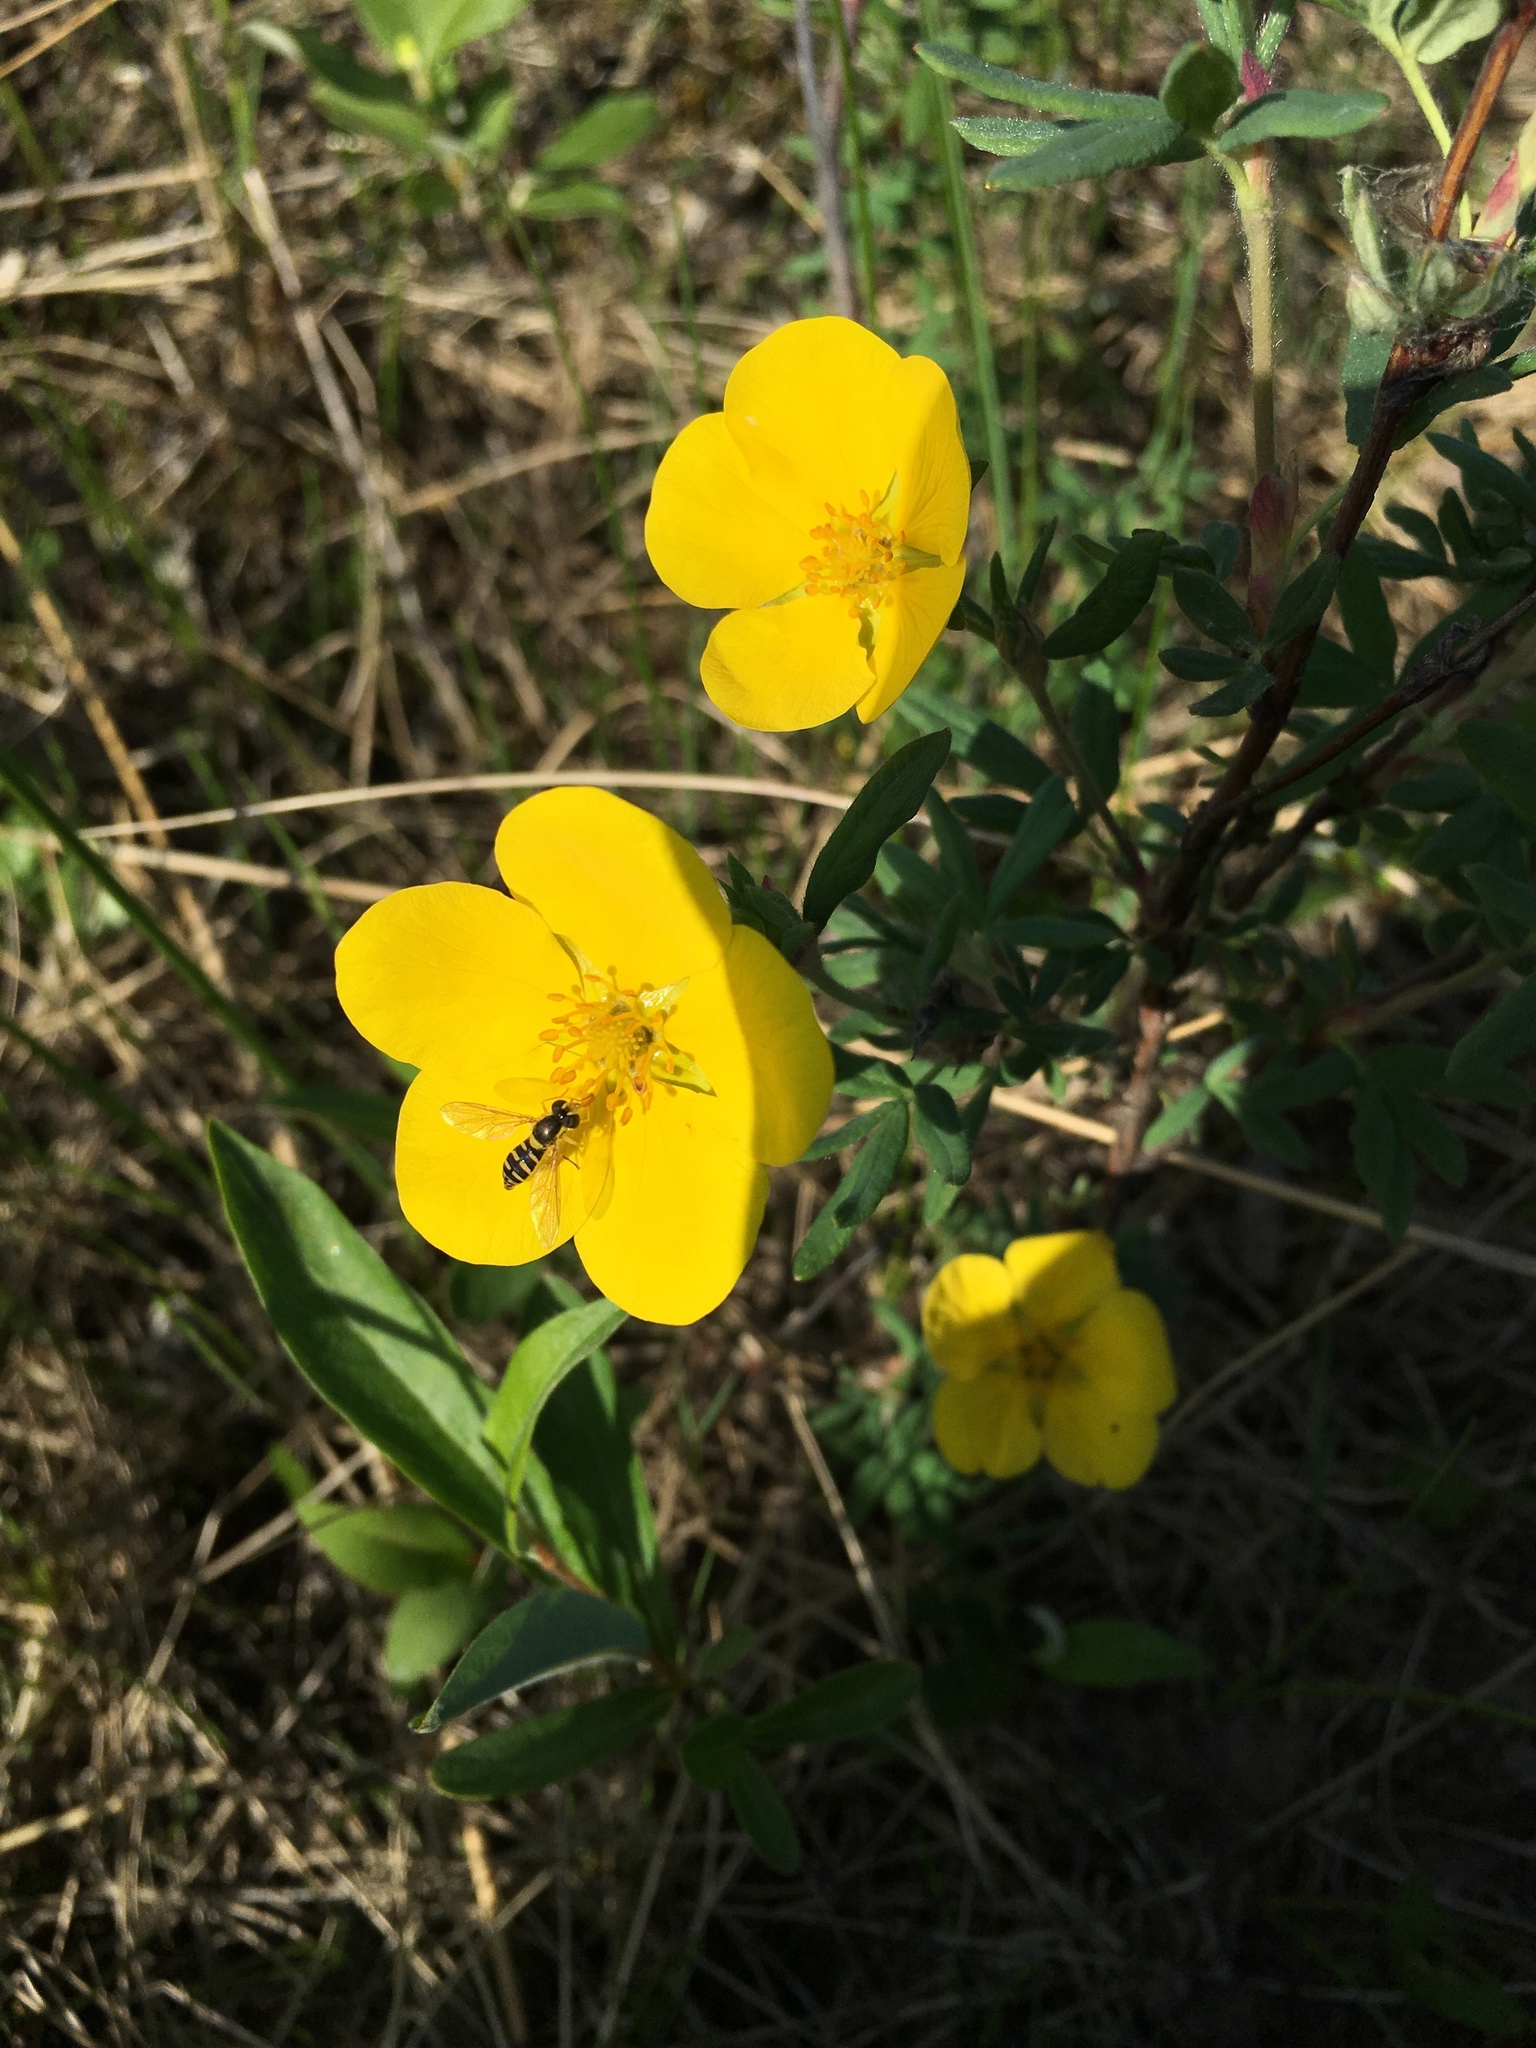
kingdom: Plantae
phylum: Tracheophyta
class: Magnoliopsida
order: Rosales
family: Rosaceae
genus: Dasiphora
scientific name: Dasiphora fruticosa
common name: Shrubby cinquefoil
